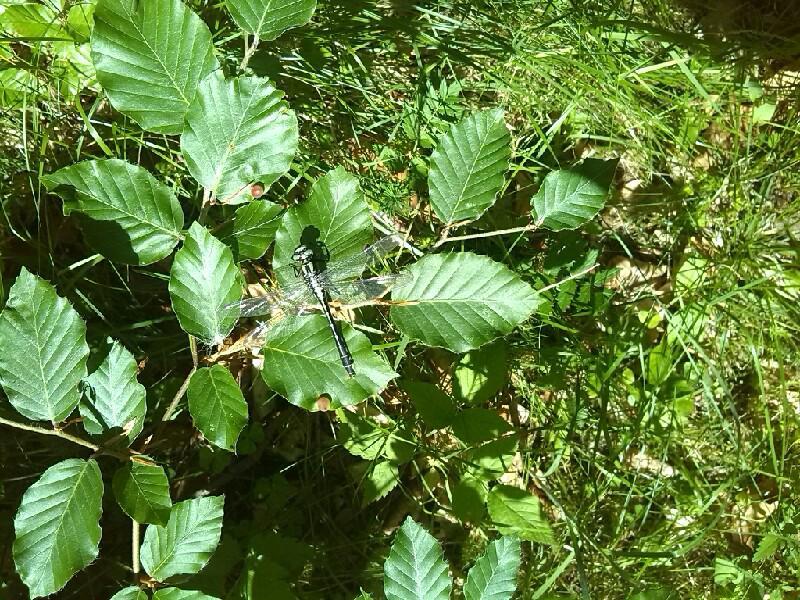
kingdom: Animalia
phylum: Arthropoda
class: Insecta
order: Odonata
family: Gomphidae
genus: Gomphus
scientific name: Gomphus vulgatissimus
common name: Club-tailed dragonfly
